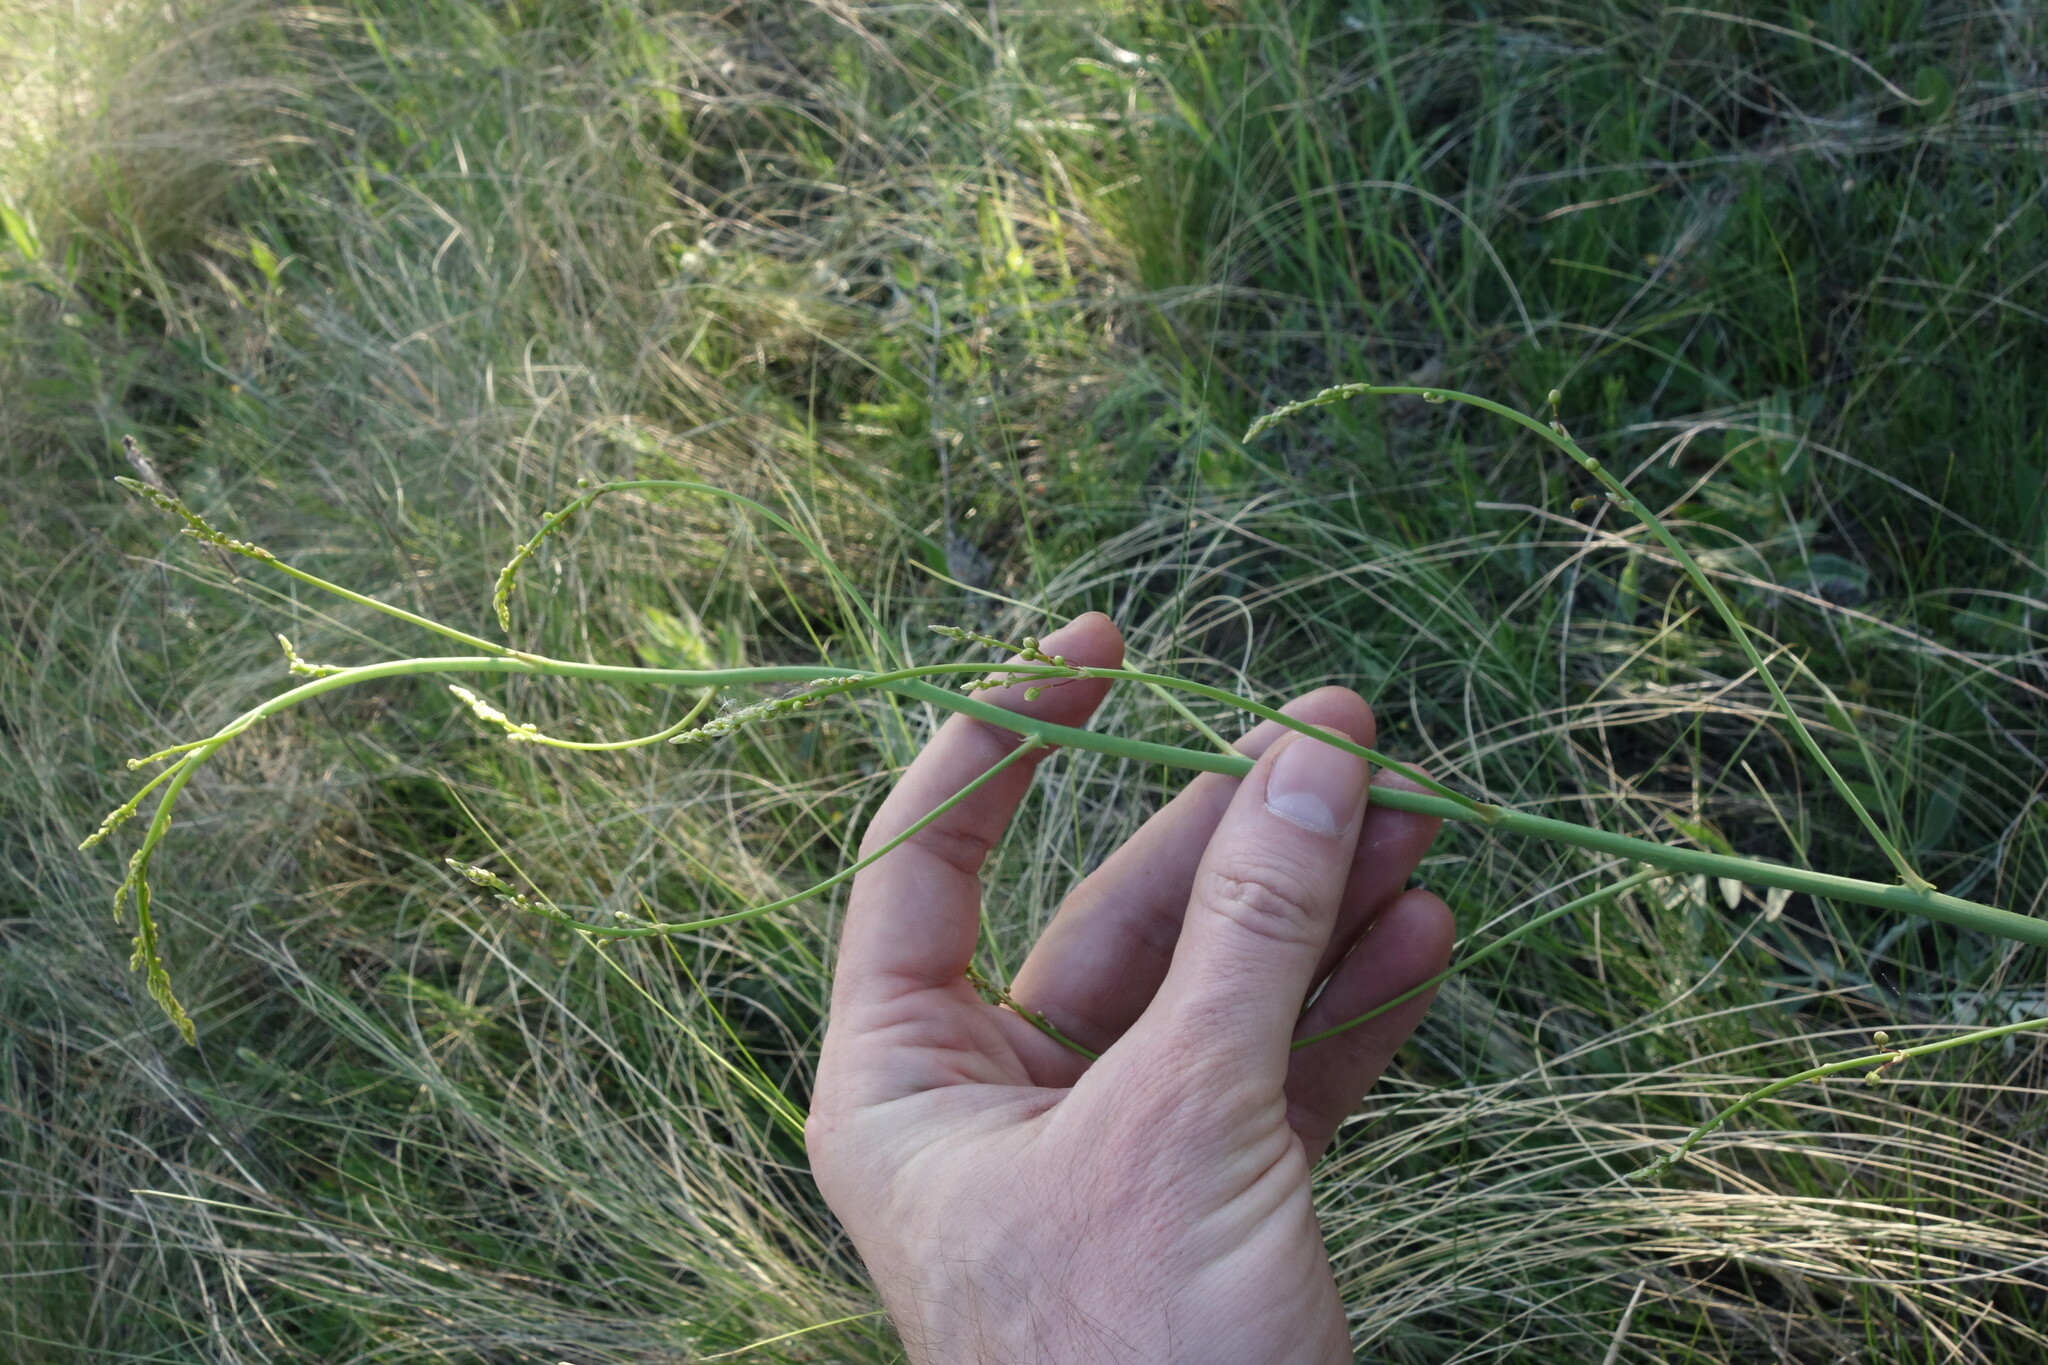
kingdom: Plantae
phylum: Tracheophyta
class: Liliopsida
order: Asparagales
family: Asparagaceae
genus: Asparagus
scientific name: Asparagus officinalis
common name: Garden asparagus
